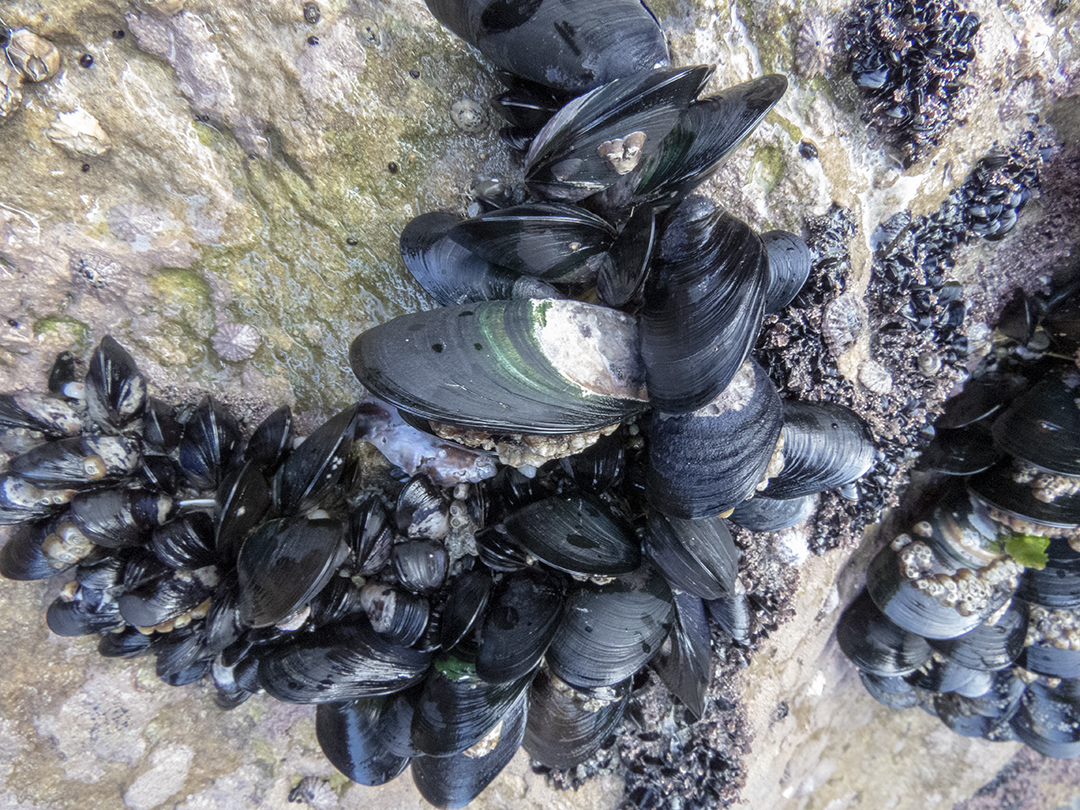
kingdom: Animalia
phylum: Mollusca
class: Bivalvia
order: Mytilida
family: Mytilidae
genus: Perna
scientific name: Perna canaliculus
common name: New zealand greenshelltm
